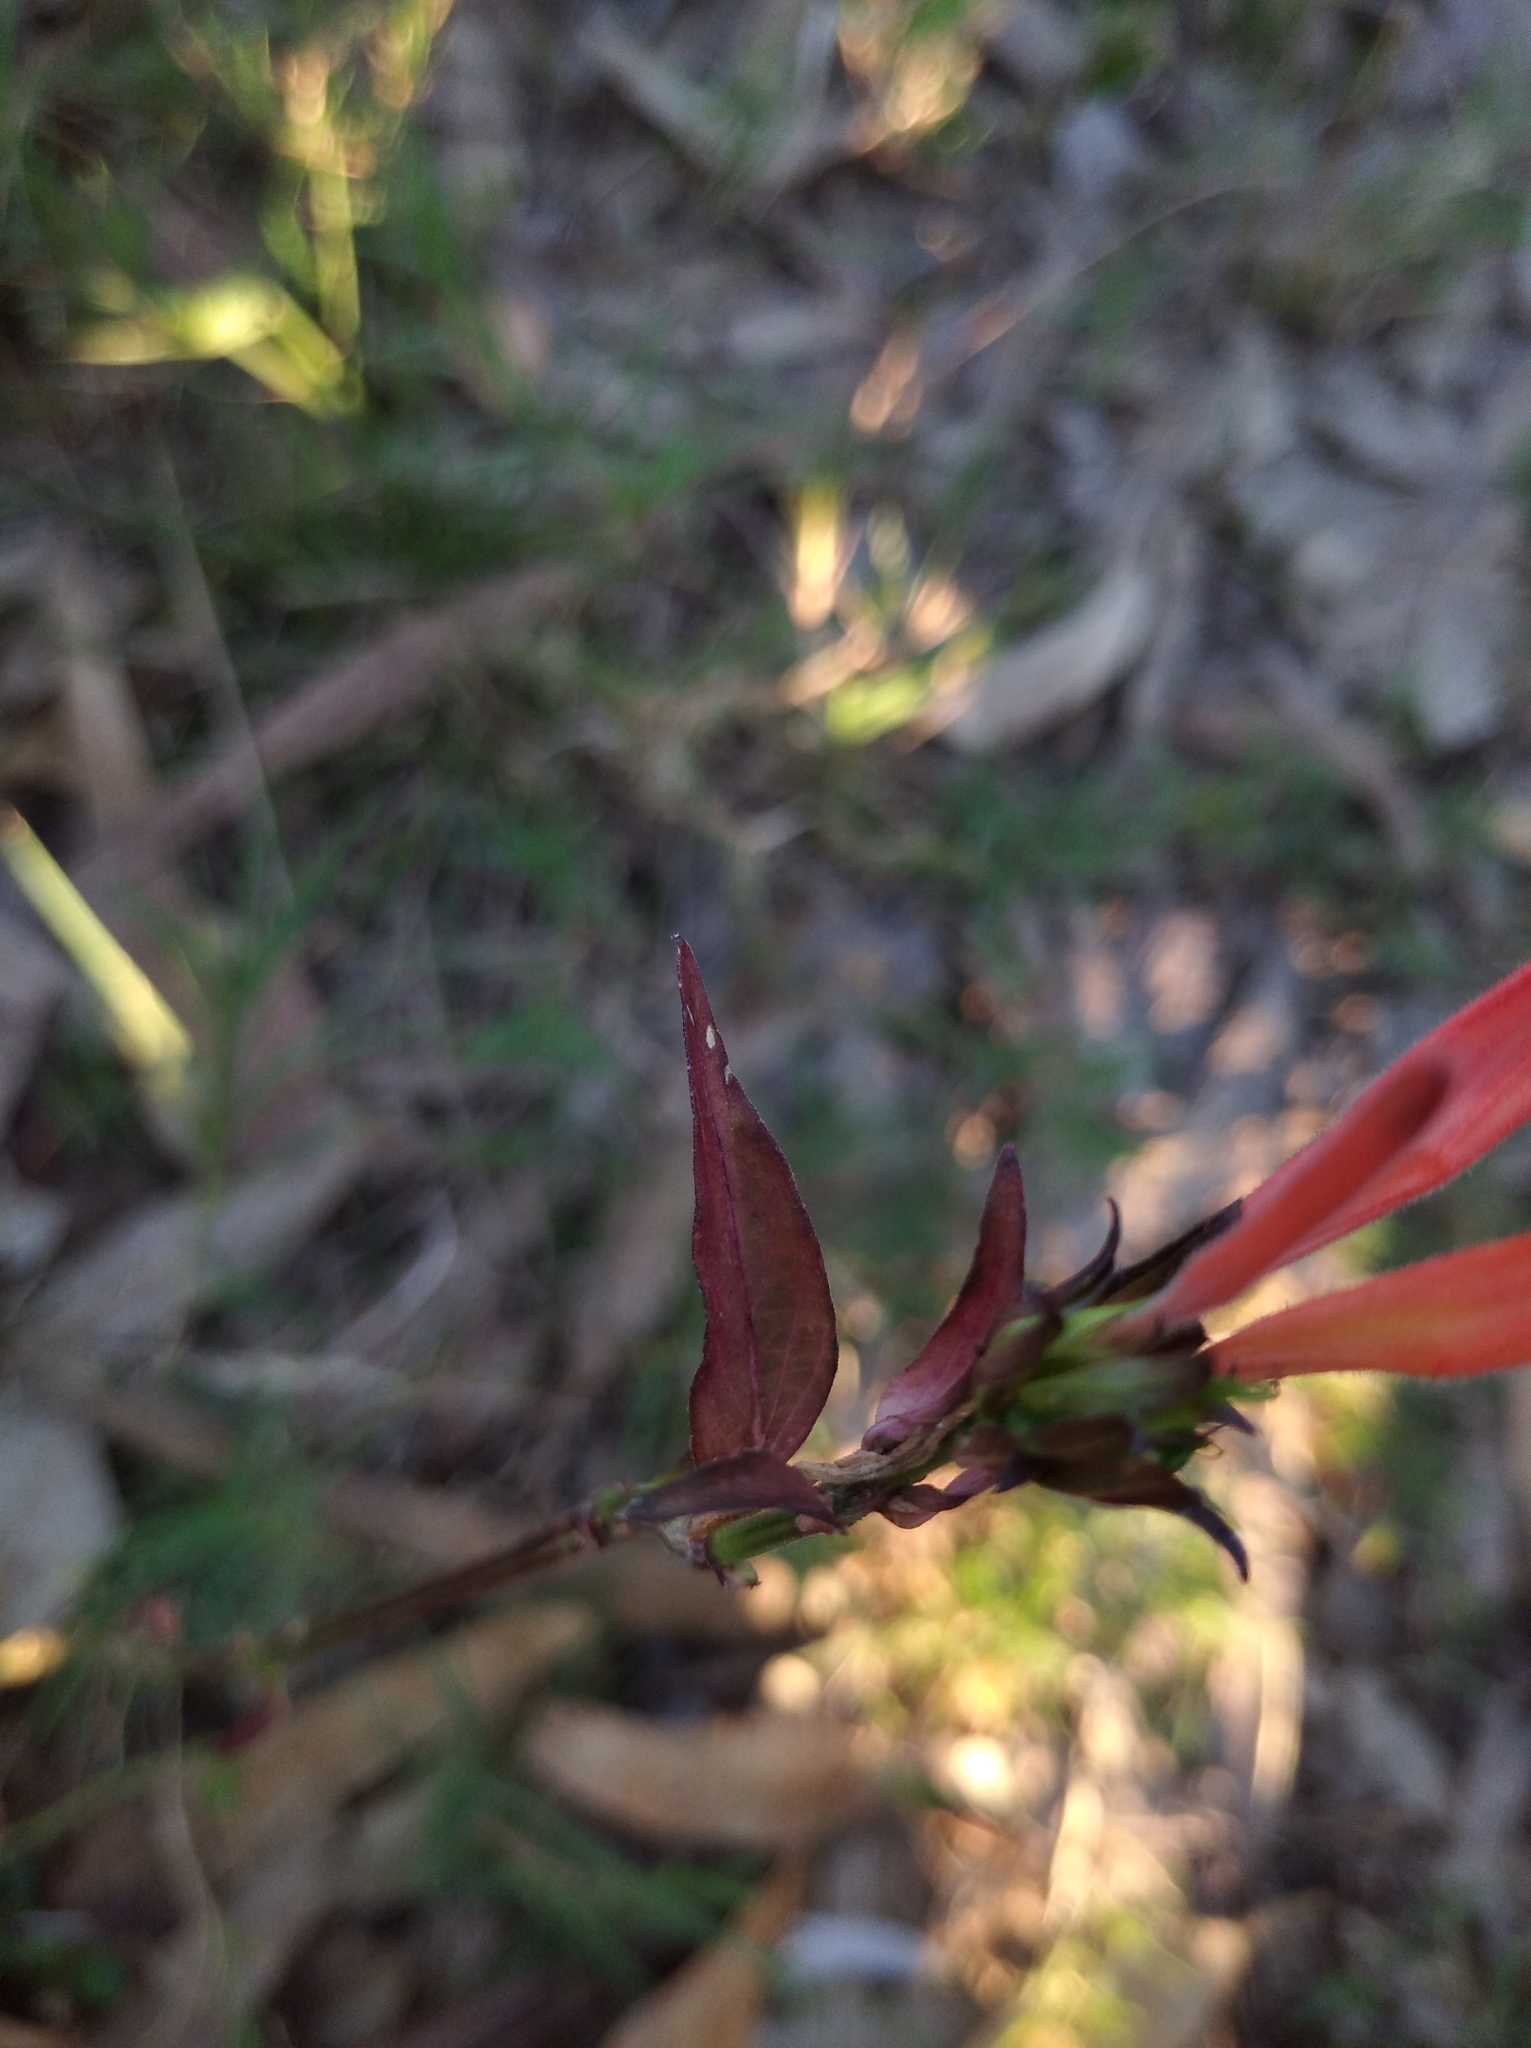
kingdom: Plantae
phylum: Tracheophyta
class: Magnoliopsida
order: Lamiales
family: Acanthaceae
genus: Dicliptera
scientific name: Dicliptera squarrosa
